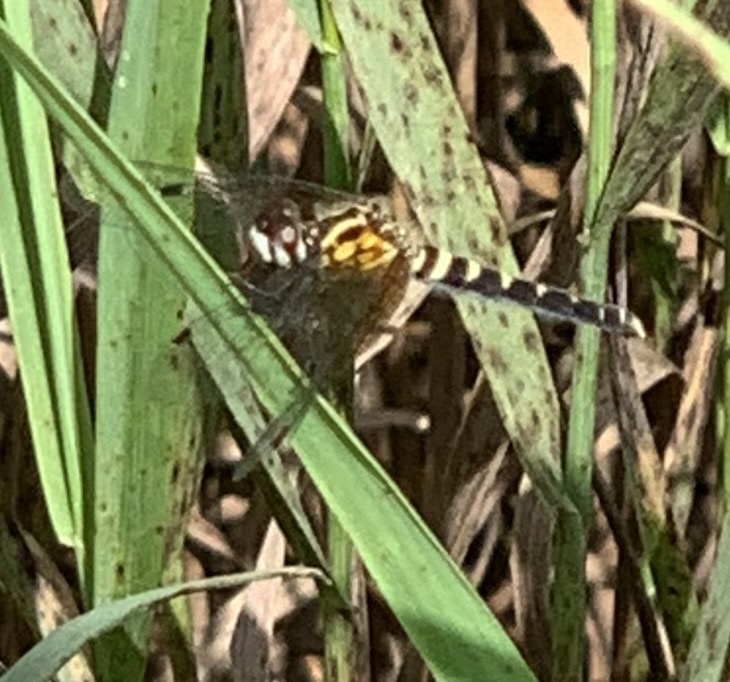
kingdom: Animalia
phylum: Arthropoda
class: Insecta
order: Odonata
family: Libellulidae
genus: Nannothemis
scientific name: Nannothemis bella
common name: Elfin skimmer
